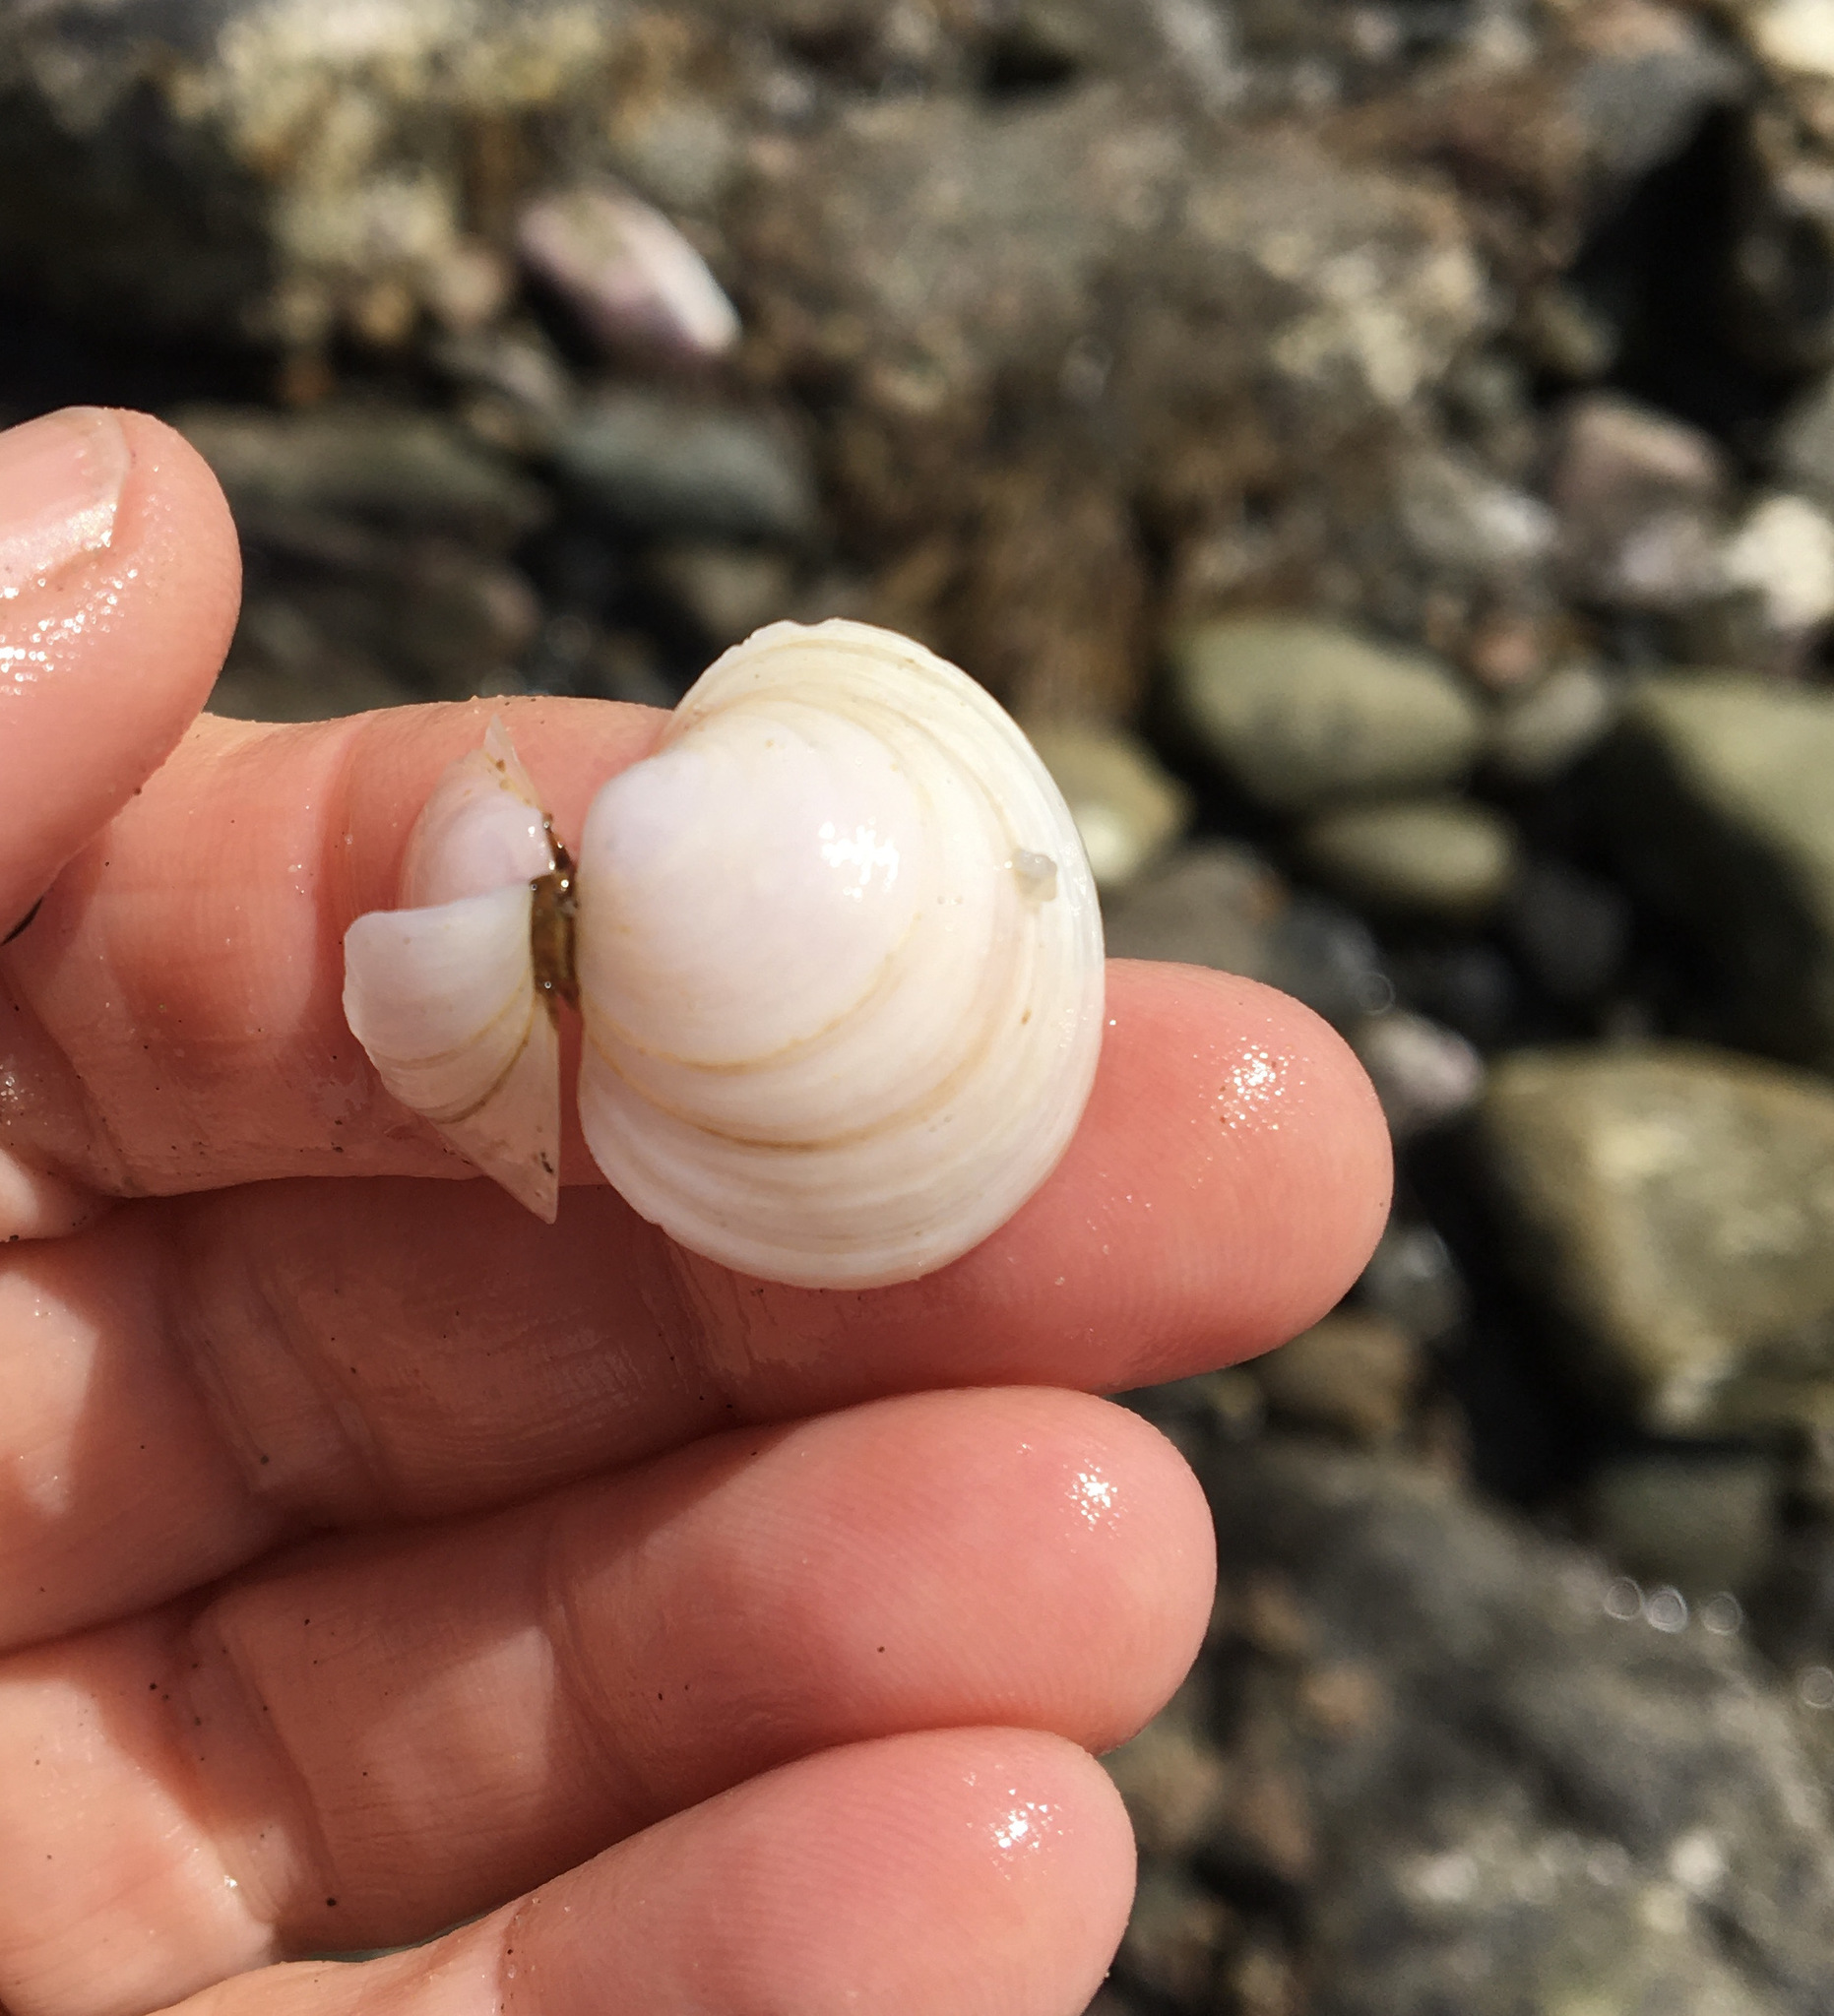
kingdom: Animalia
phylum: Mollusca
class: Bivalvia
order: Venerida
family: Ungulinidae
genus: Zemysina
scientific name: Zemysina orbella
